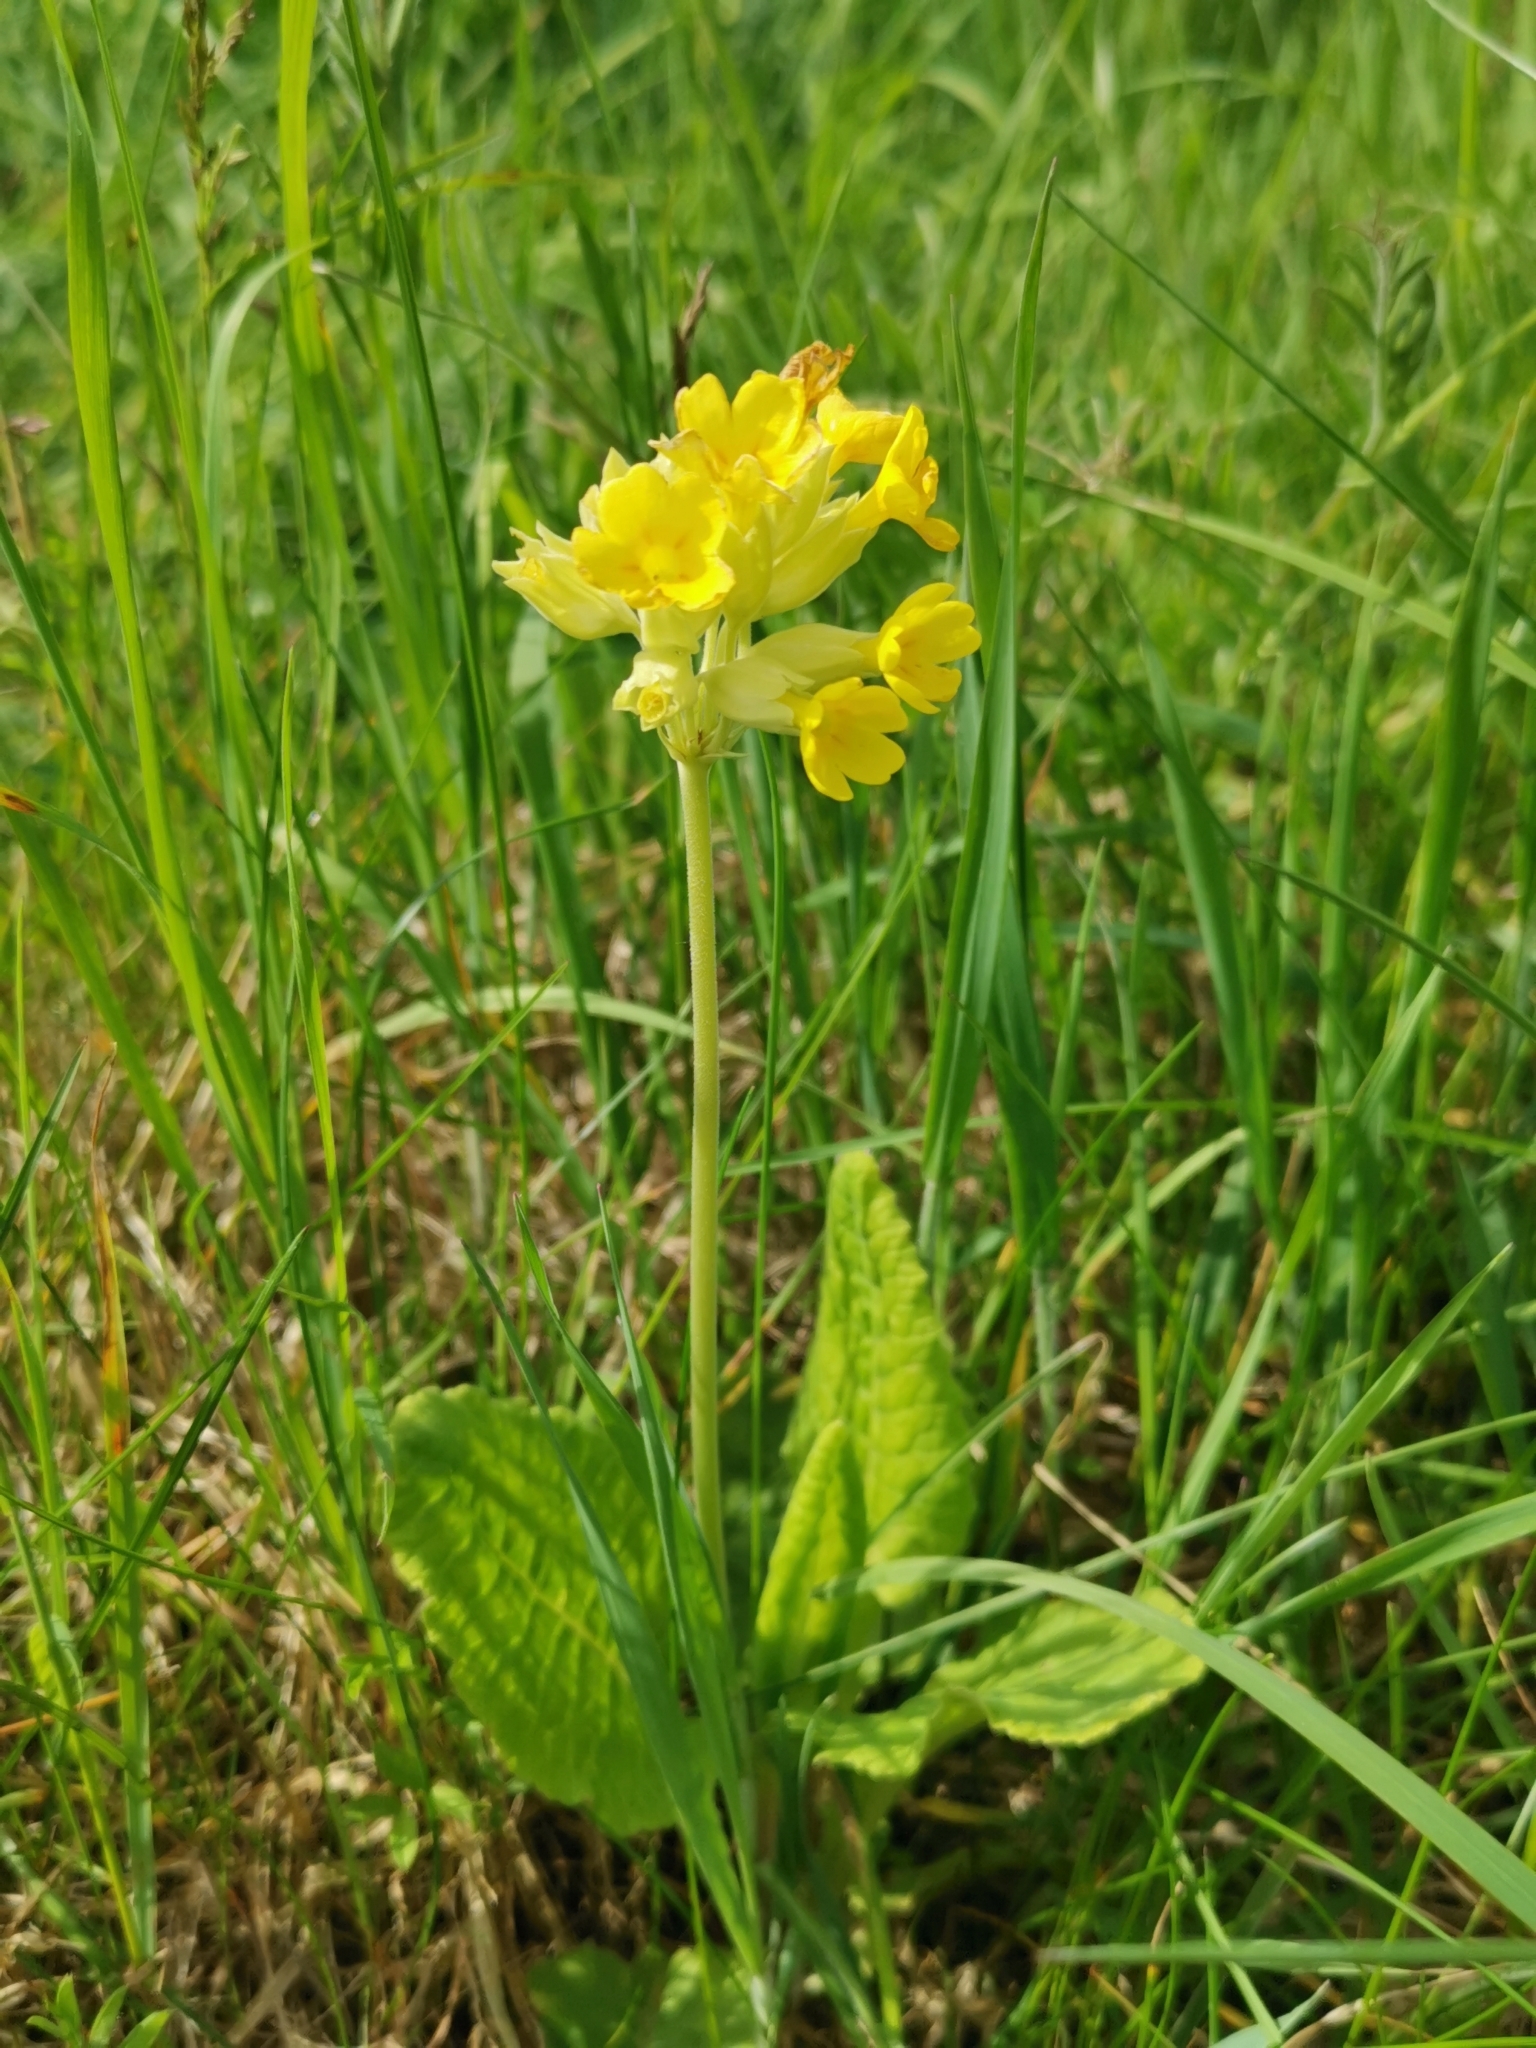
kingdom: Plantae
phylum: Tracheophyta
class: Magnoliopsida
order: Ericales
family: Primulaceae
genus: Primula
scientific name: Primula veris
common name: Cowslip
